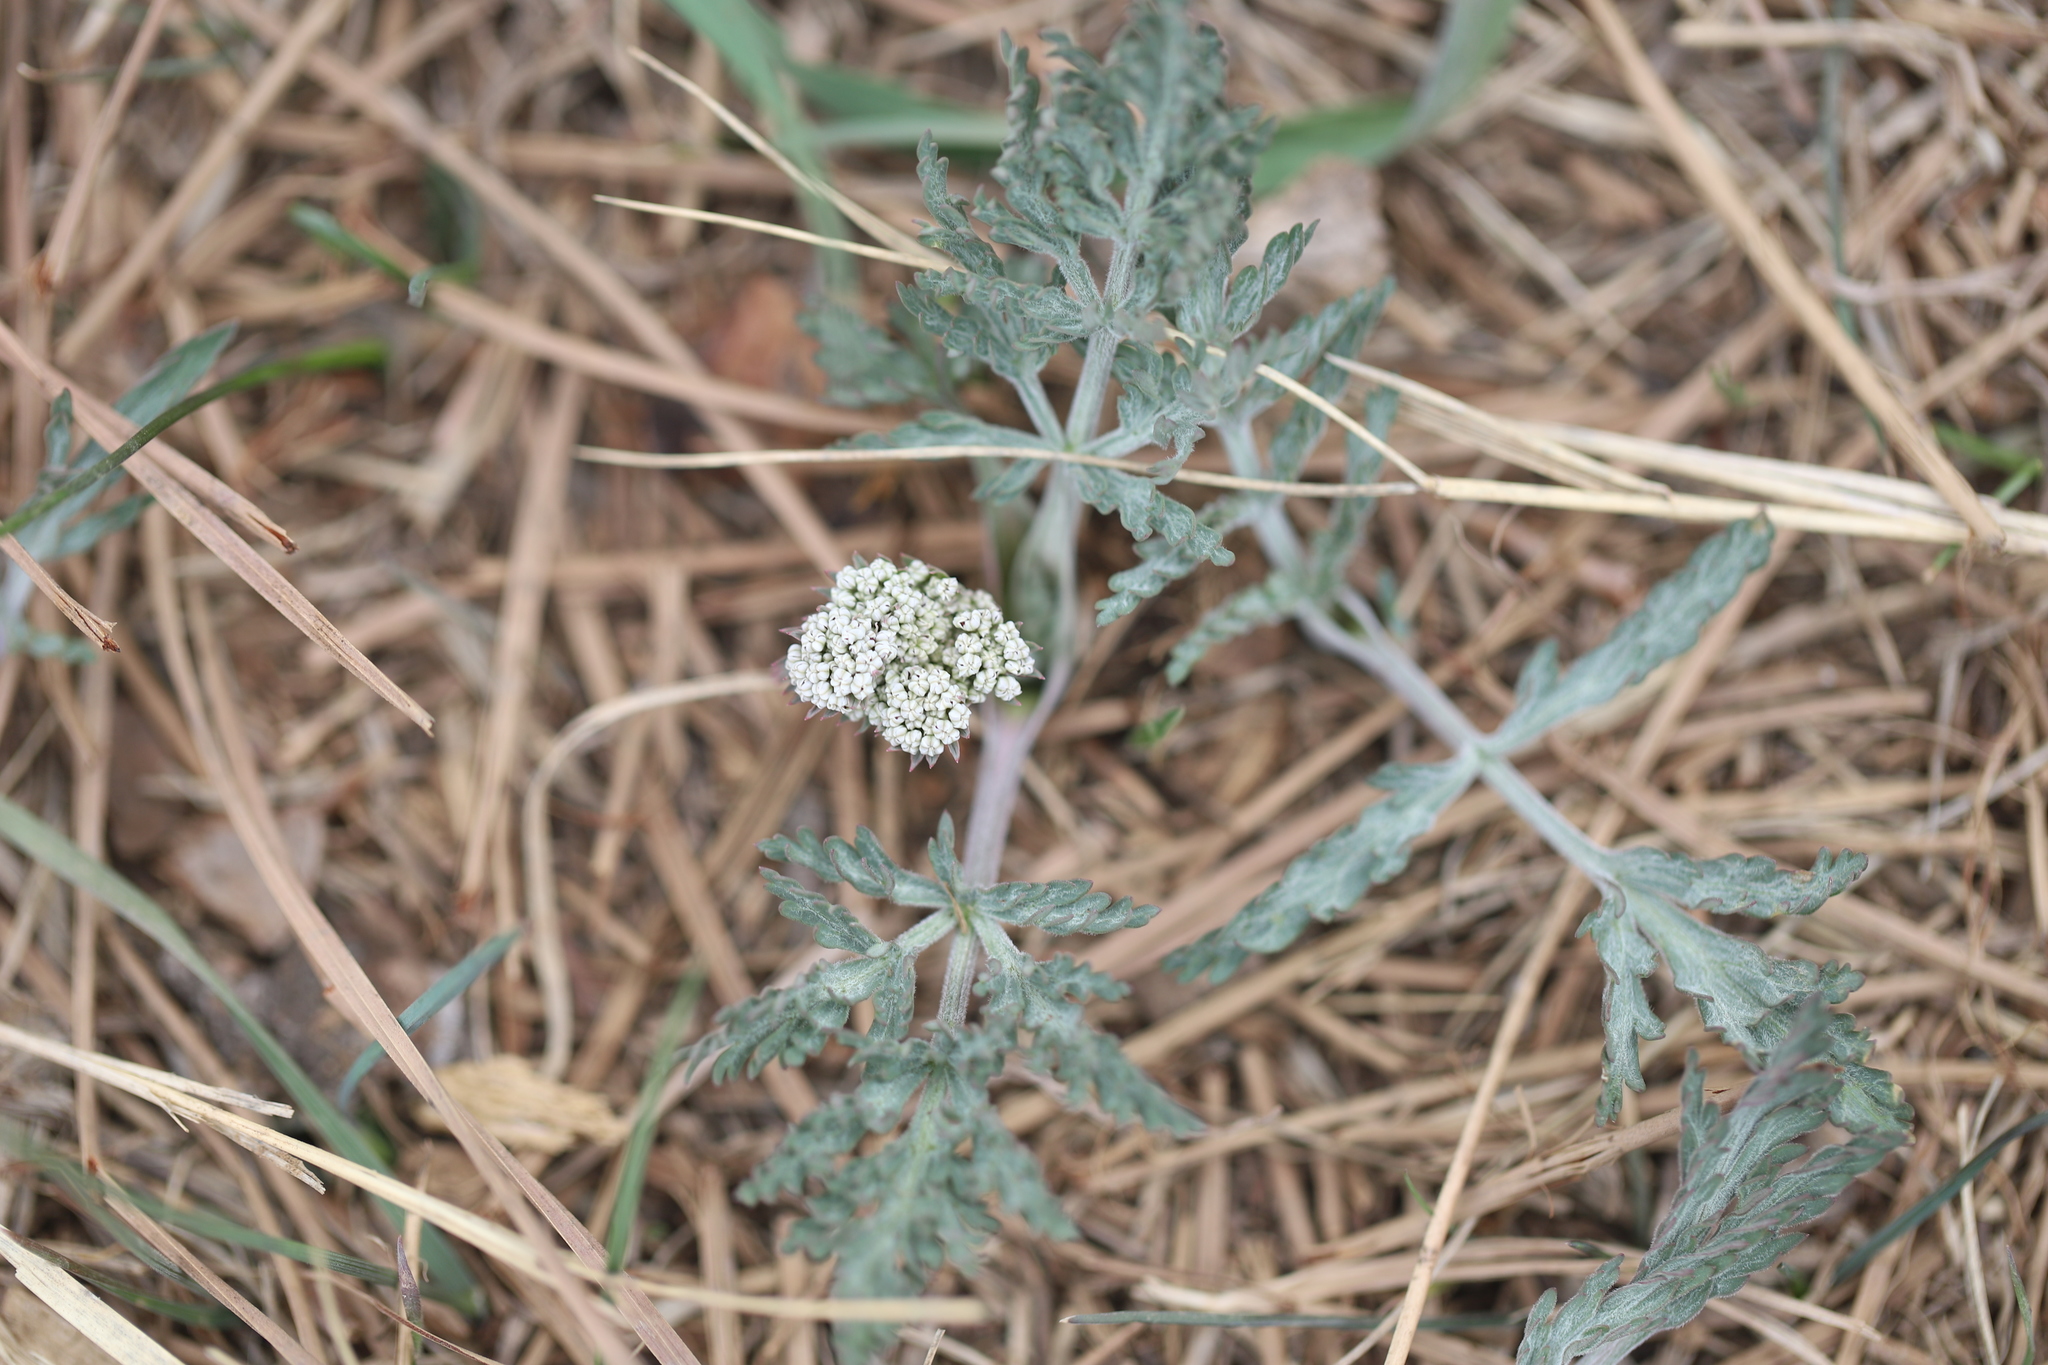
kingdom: Plantae
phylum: Tracheophyta
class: Magnoliopsida
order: Apiales
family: Apiaceae
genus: Lomatium
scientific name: Lomatium orientale
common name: Eastern cous
